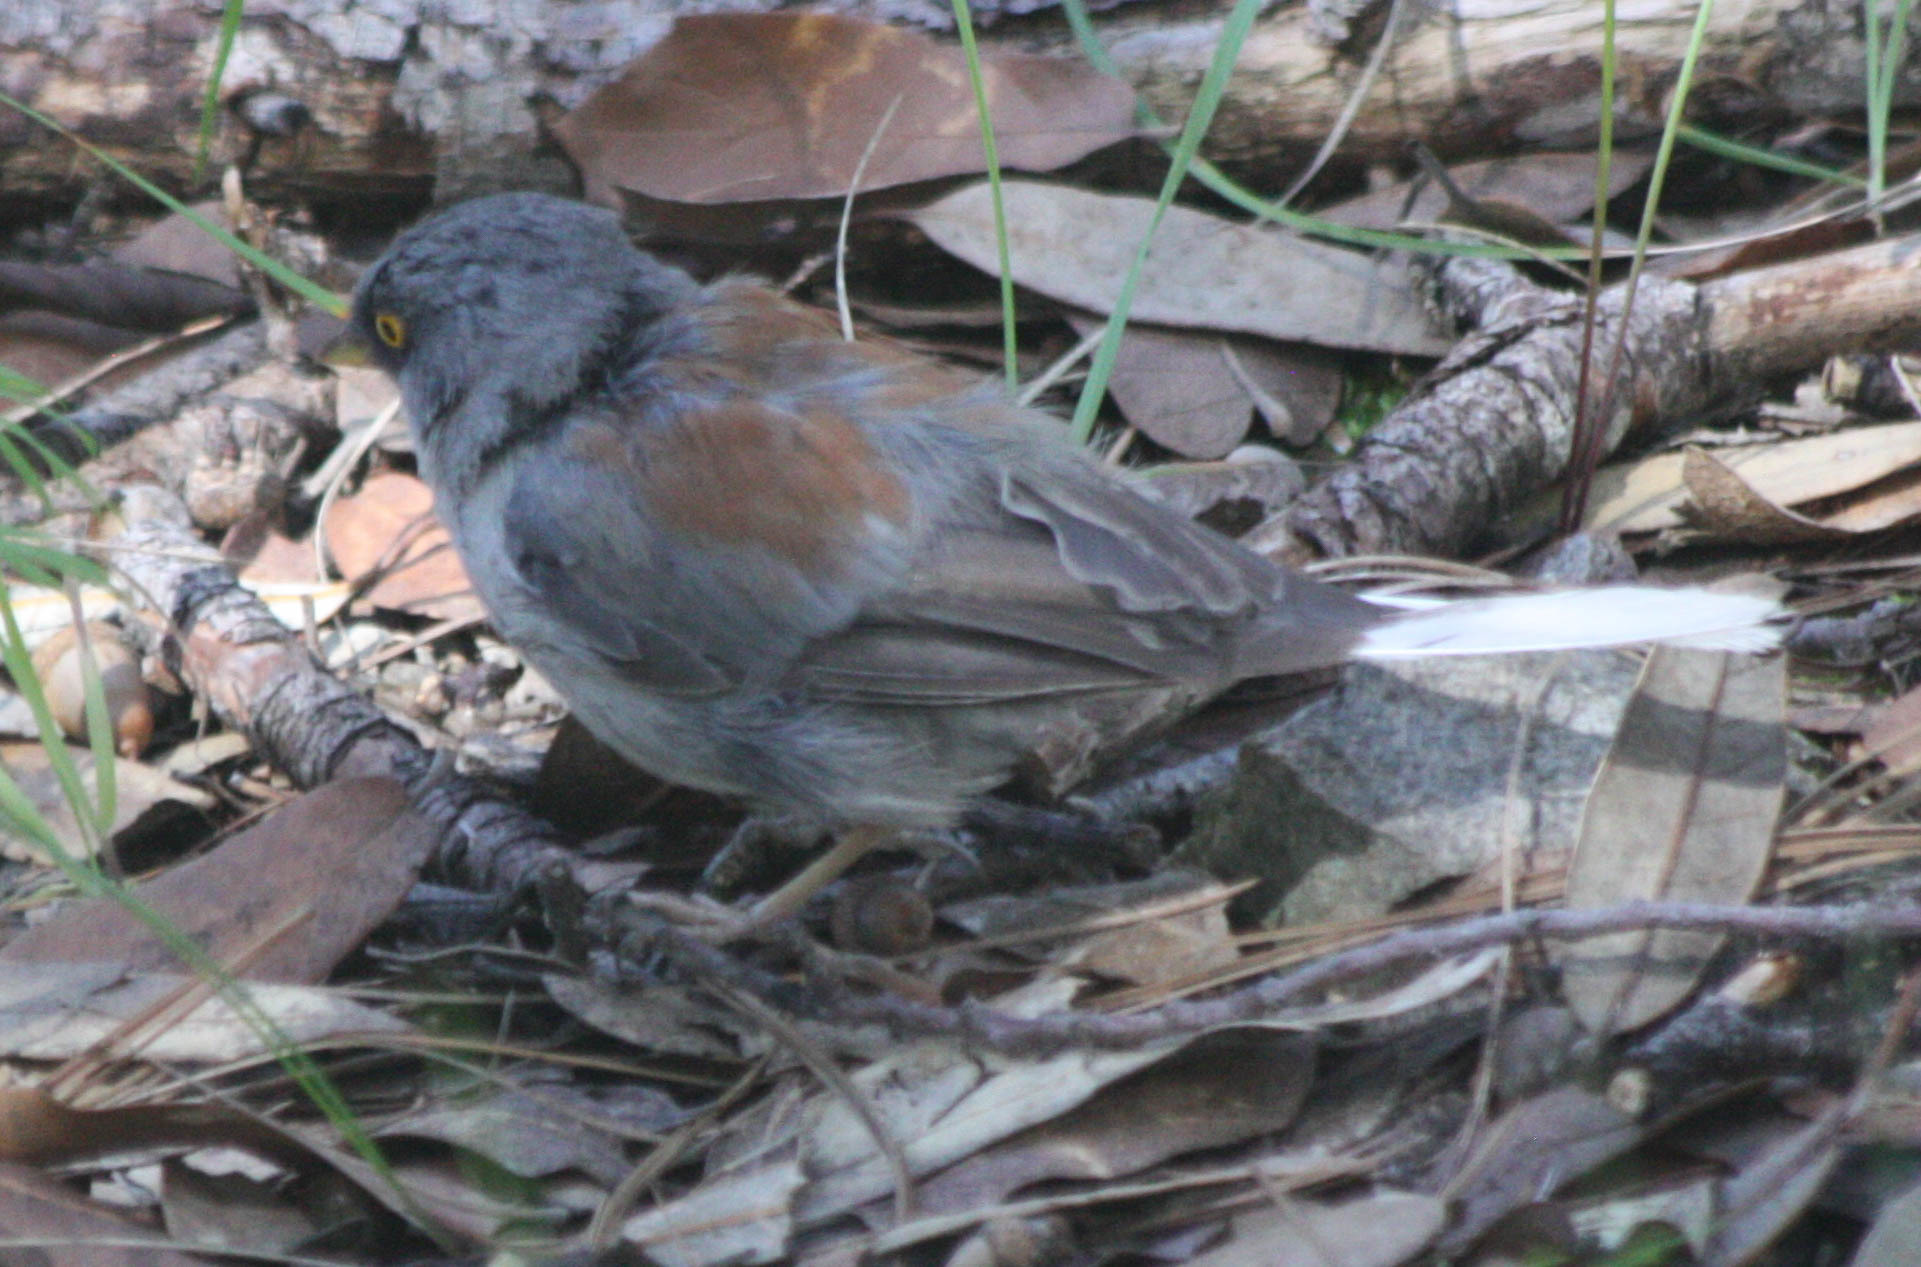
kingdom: Animalia
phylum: Chordata
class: Aves
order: Passeriformes
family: Passerellidae
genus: Junco
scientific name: Junco phaeonotus
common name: Yellow-eyed junco
